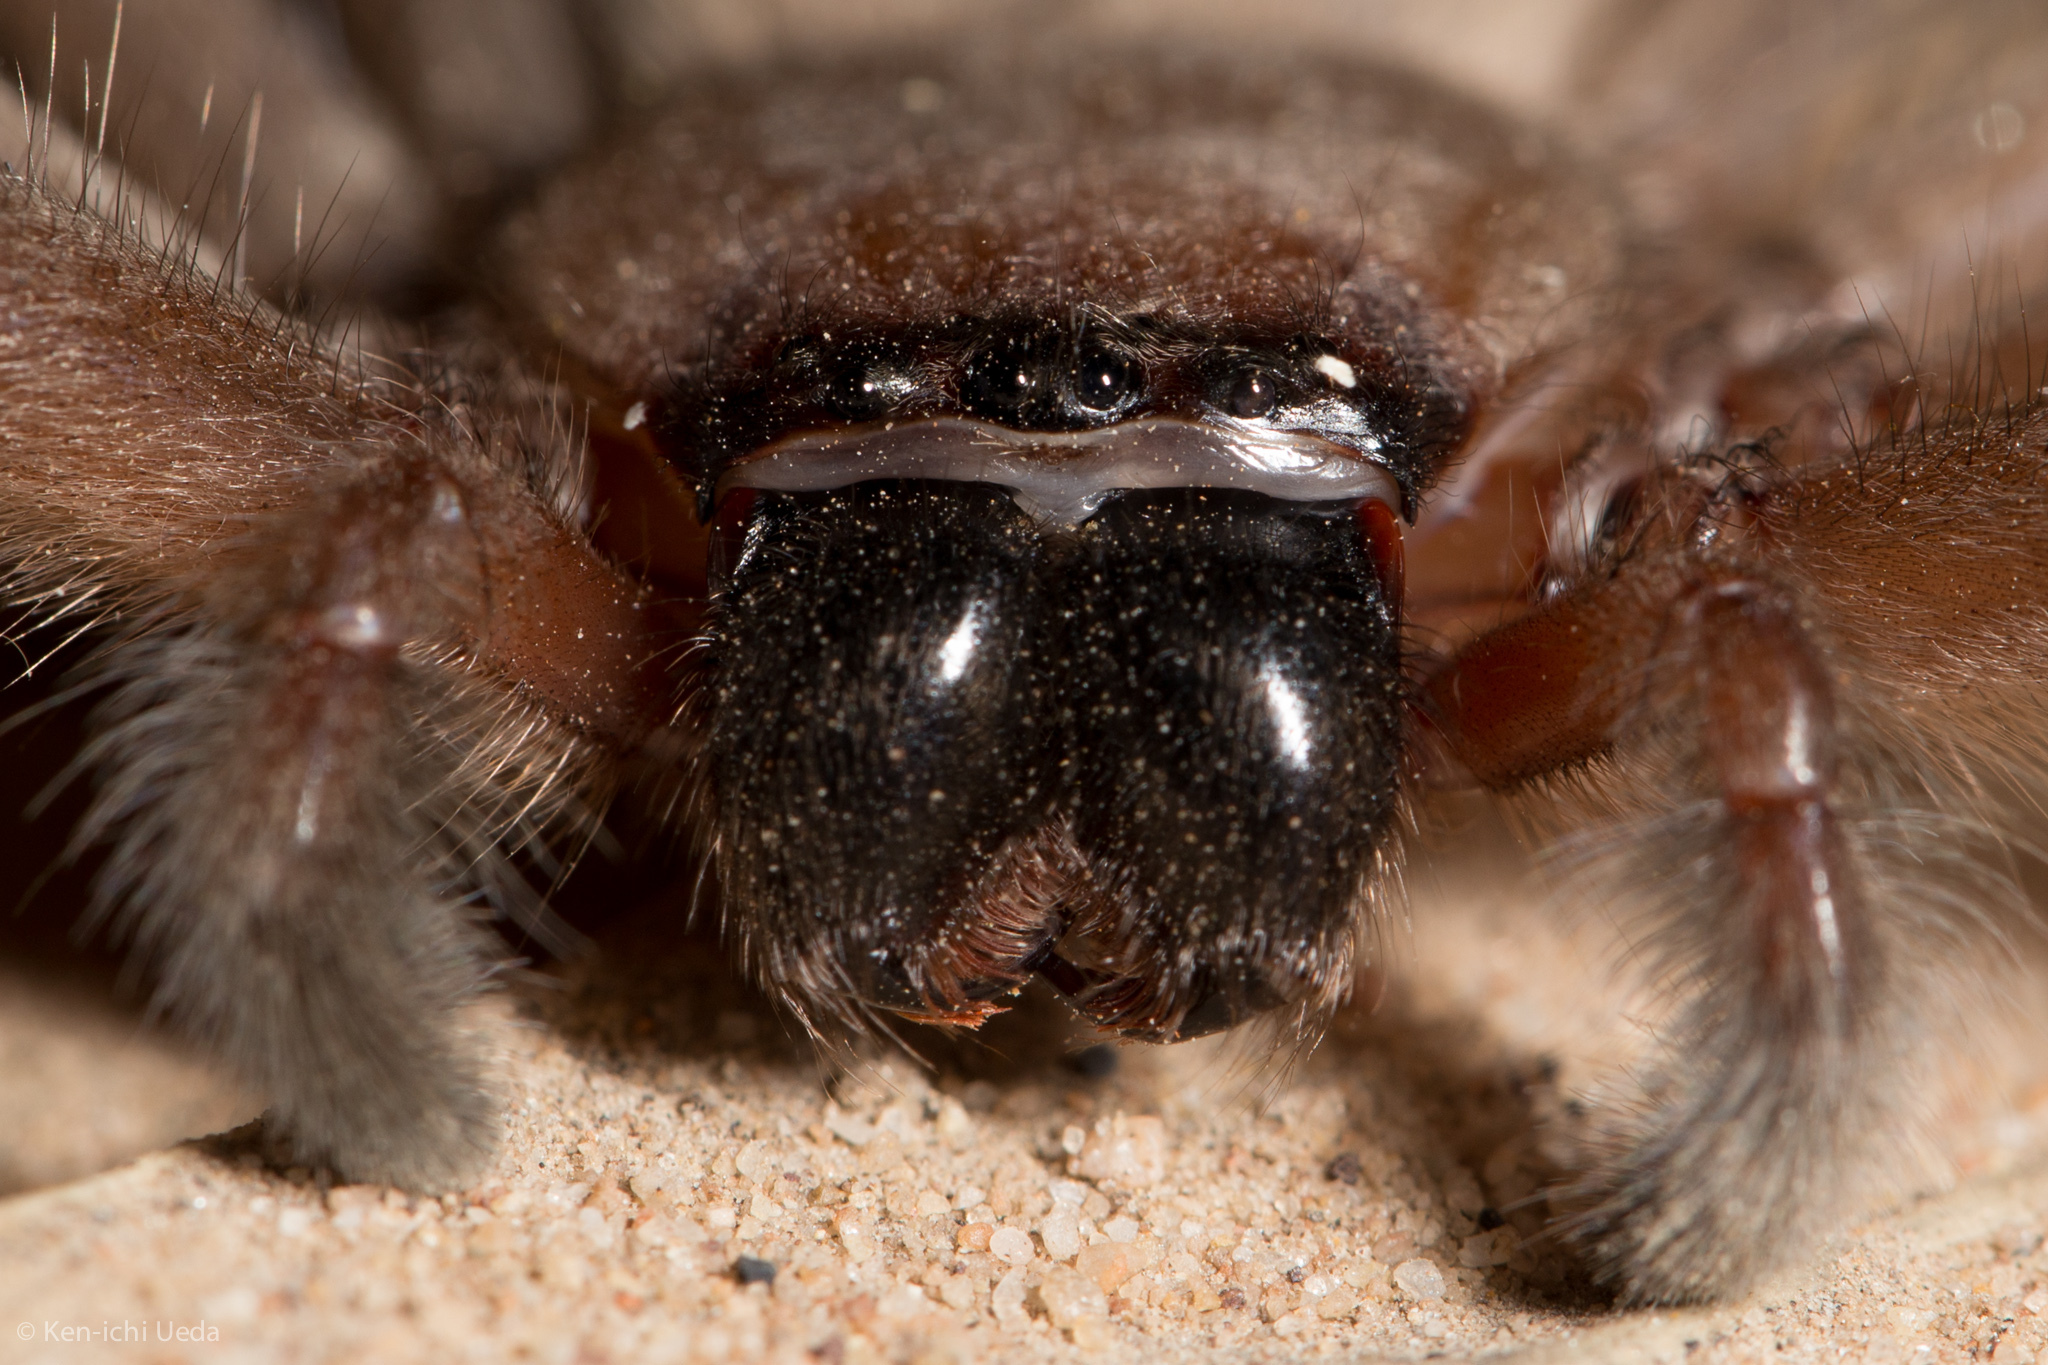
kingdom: Animalia
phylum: Arthropoda
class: Arachnida
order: Araneae
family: Sparassidae
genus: Delena
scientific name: Delena cancerides
